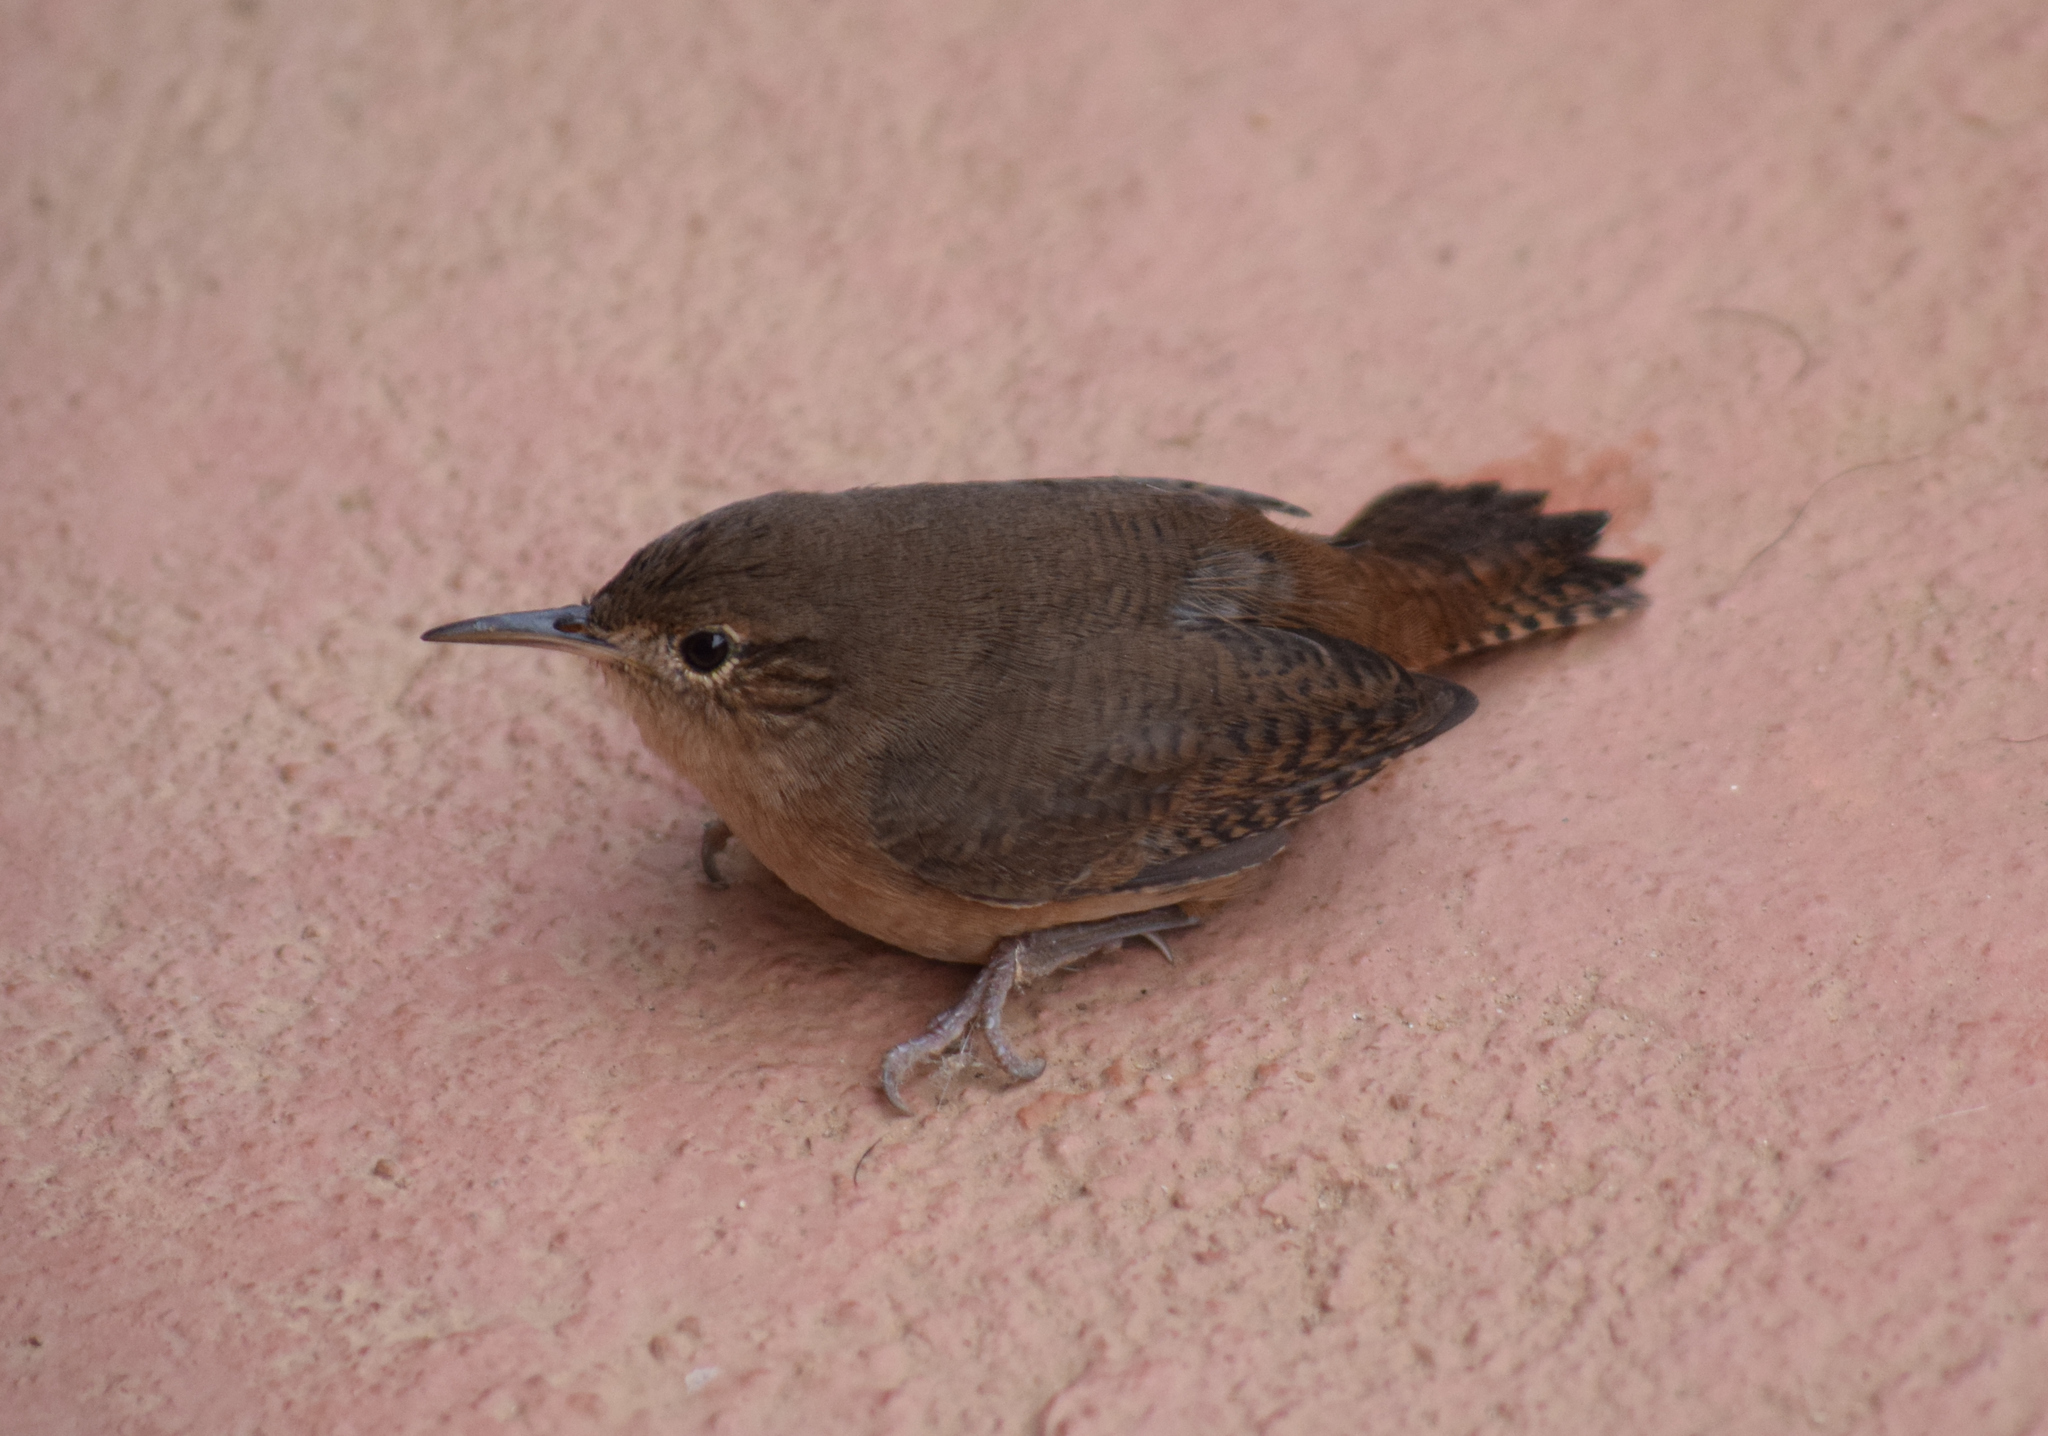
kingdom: Animalia
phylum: Chordata
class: Aves
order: Passeriformes
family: Troglodytidae
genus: Troglodytes
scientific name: Troglodytes aedon
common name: House wren
